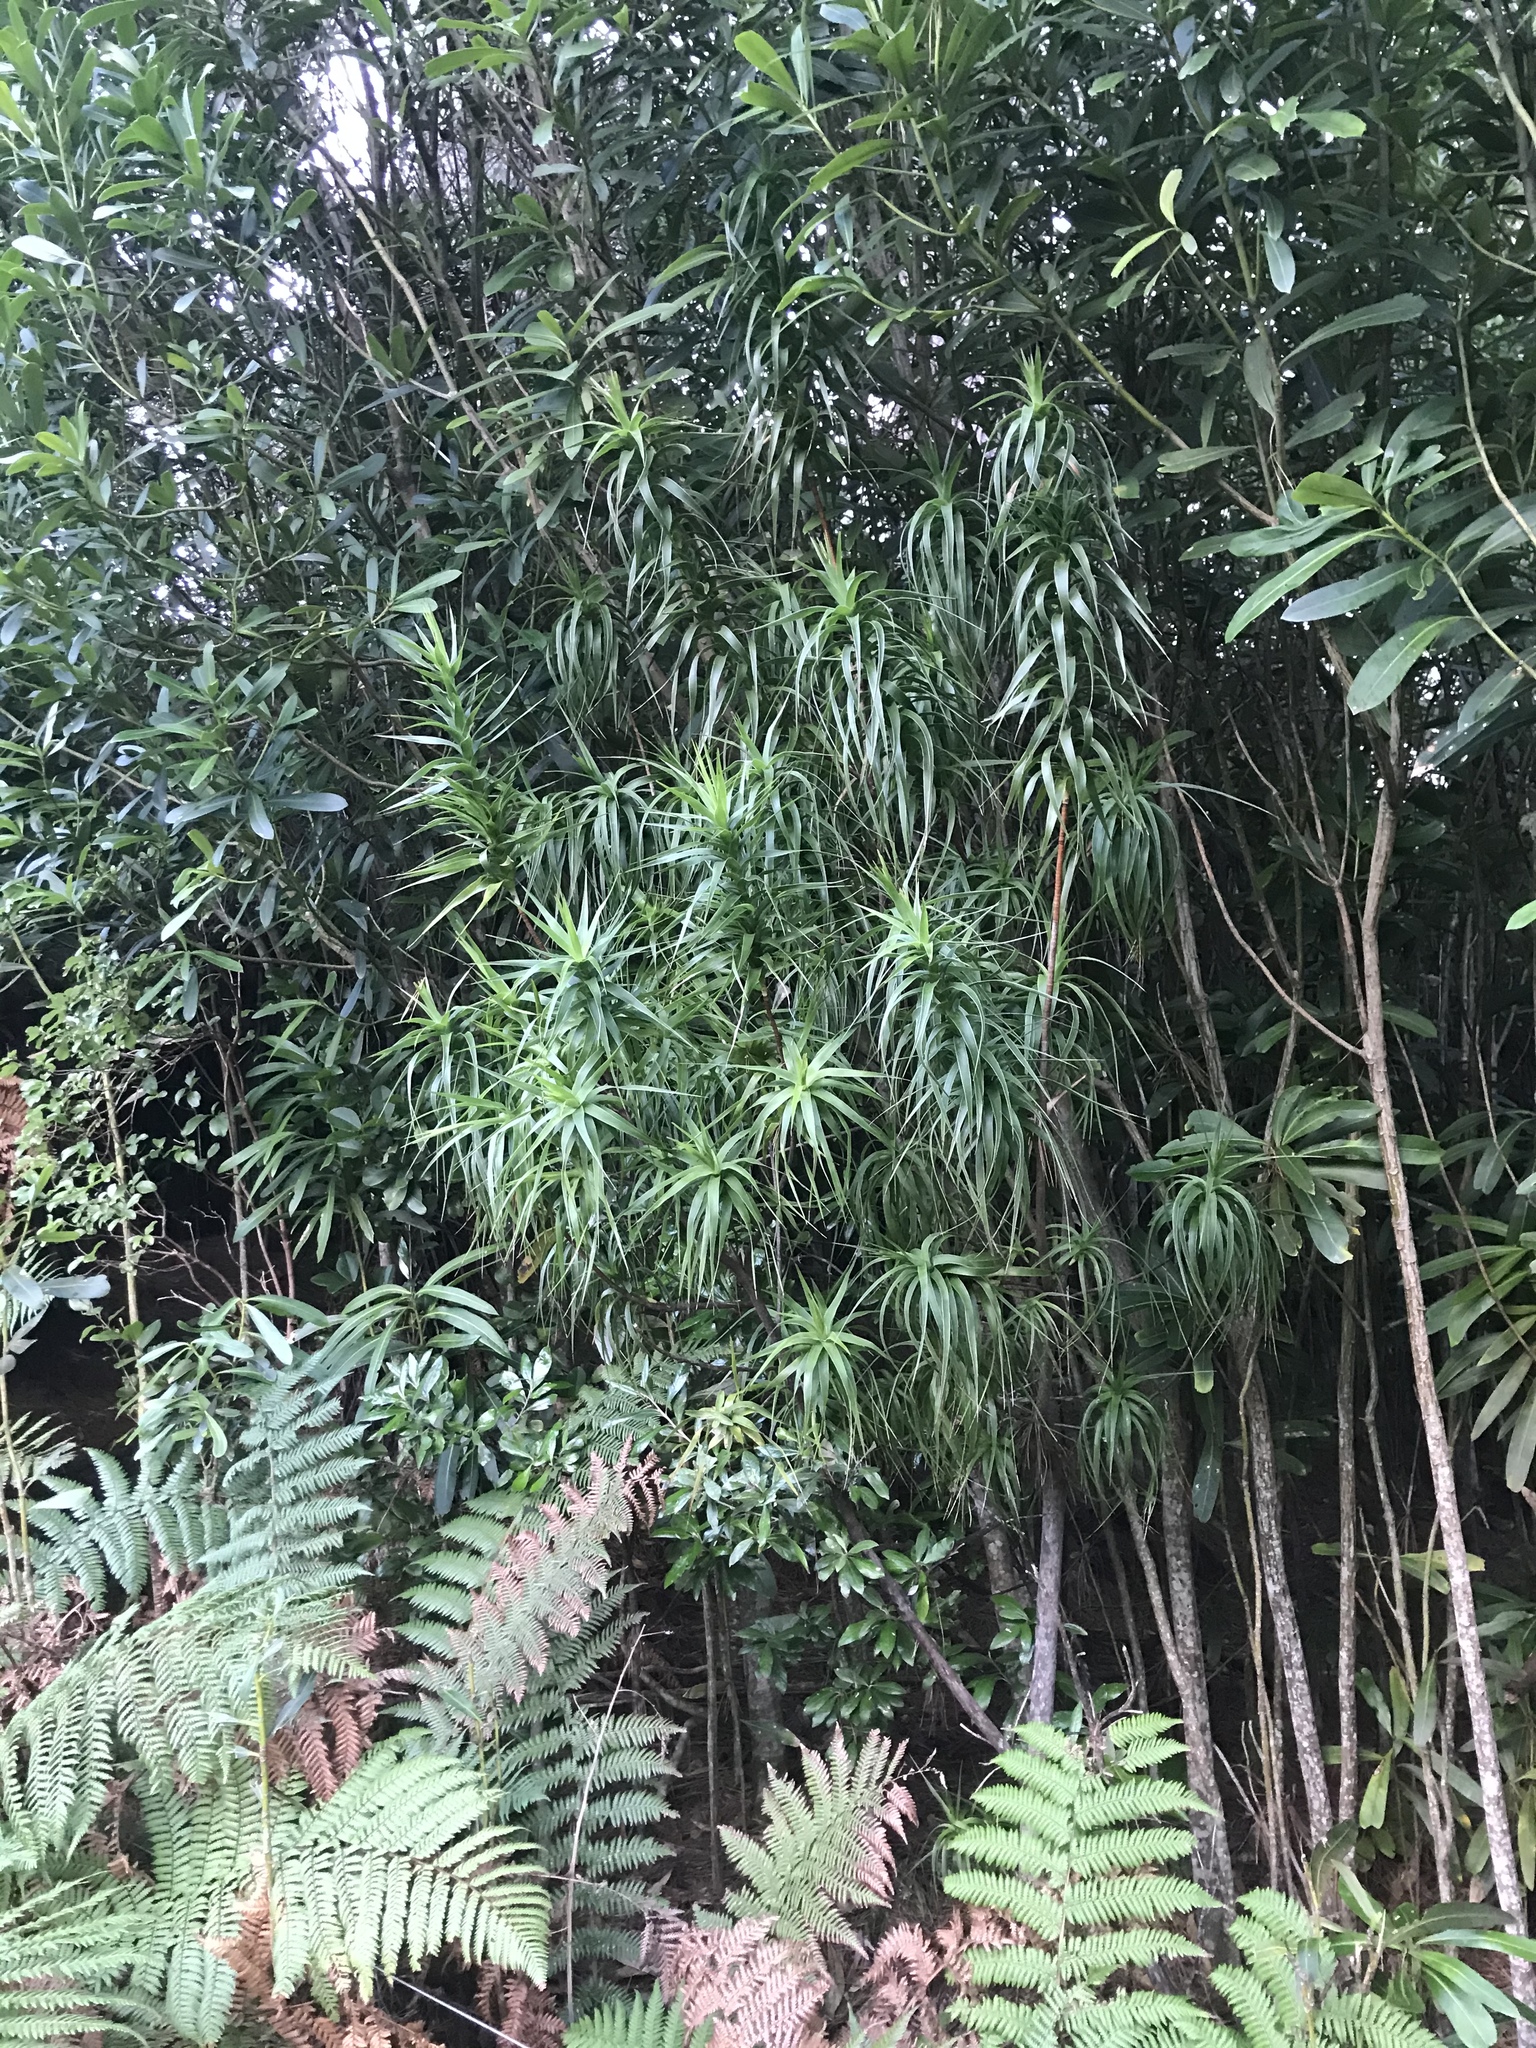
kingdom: Plantae
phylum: Tracheophyta
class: Magnoliopsida
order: Ericales
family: Ericaceae
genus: Dracophyllum
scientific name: Dracophyllum arboreum
